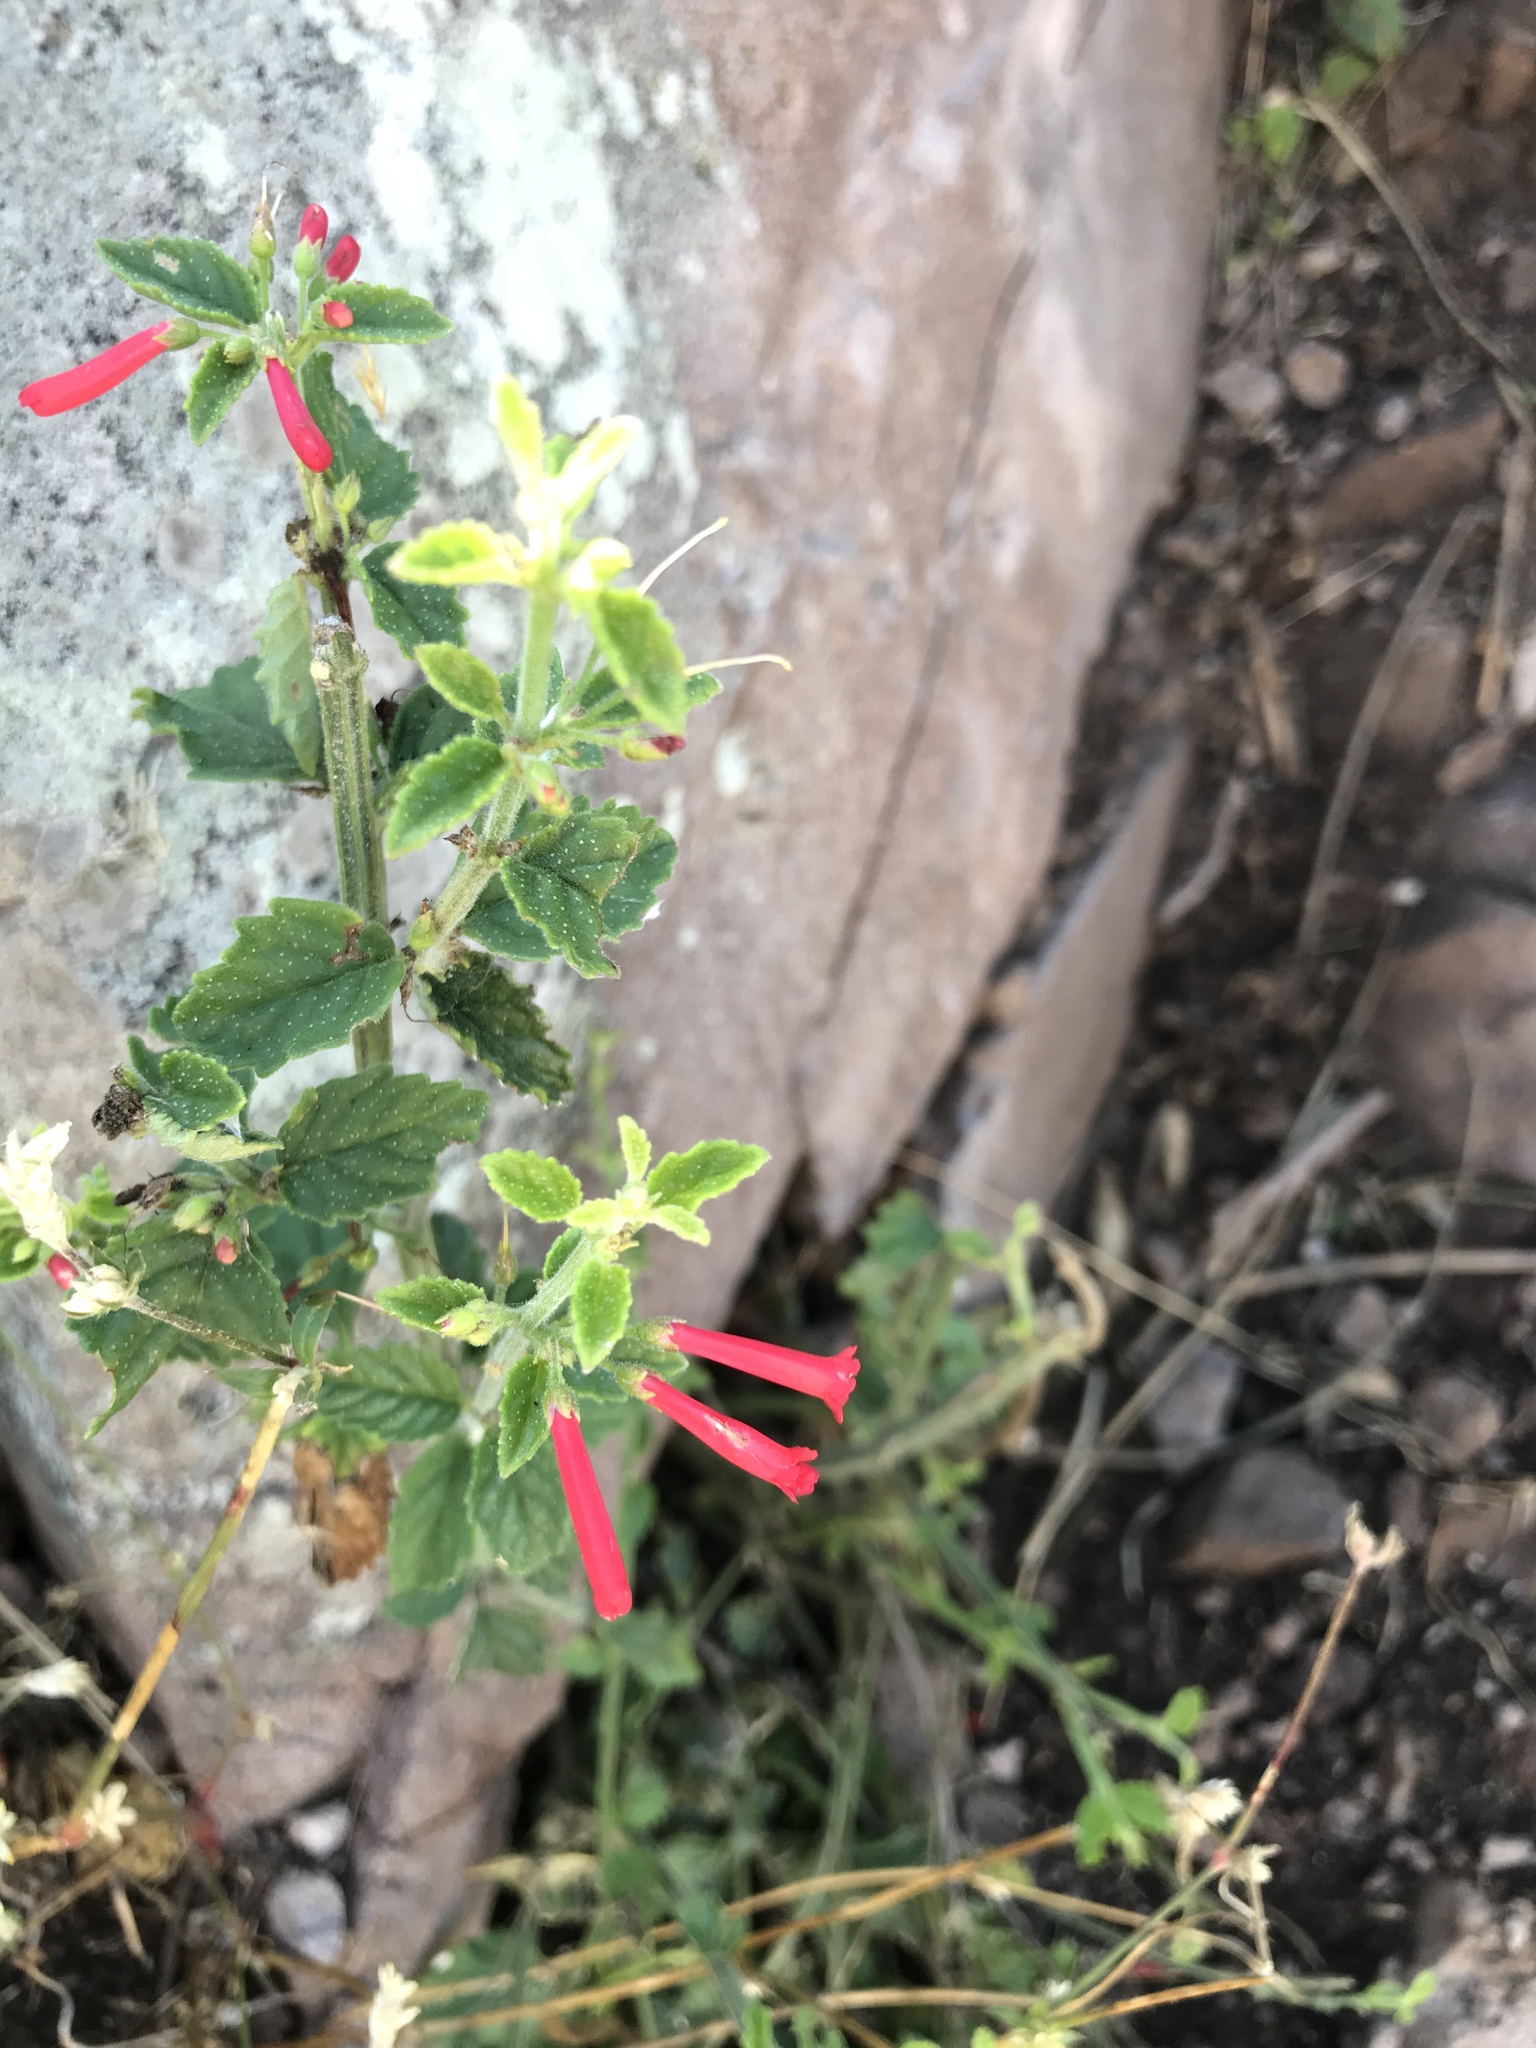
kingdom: Plantae
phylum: Tracheophyta
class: Magnoliopsida
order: Lamiales
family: Plantaginaceae
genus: Russelia
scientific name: Russelia retrorsa
